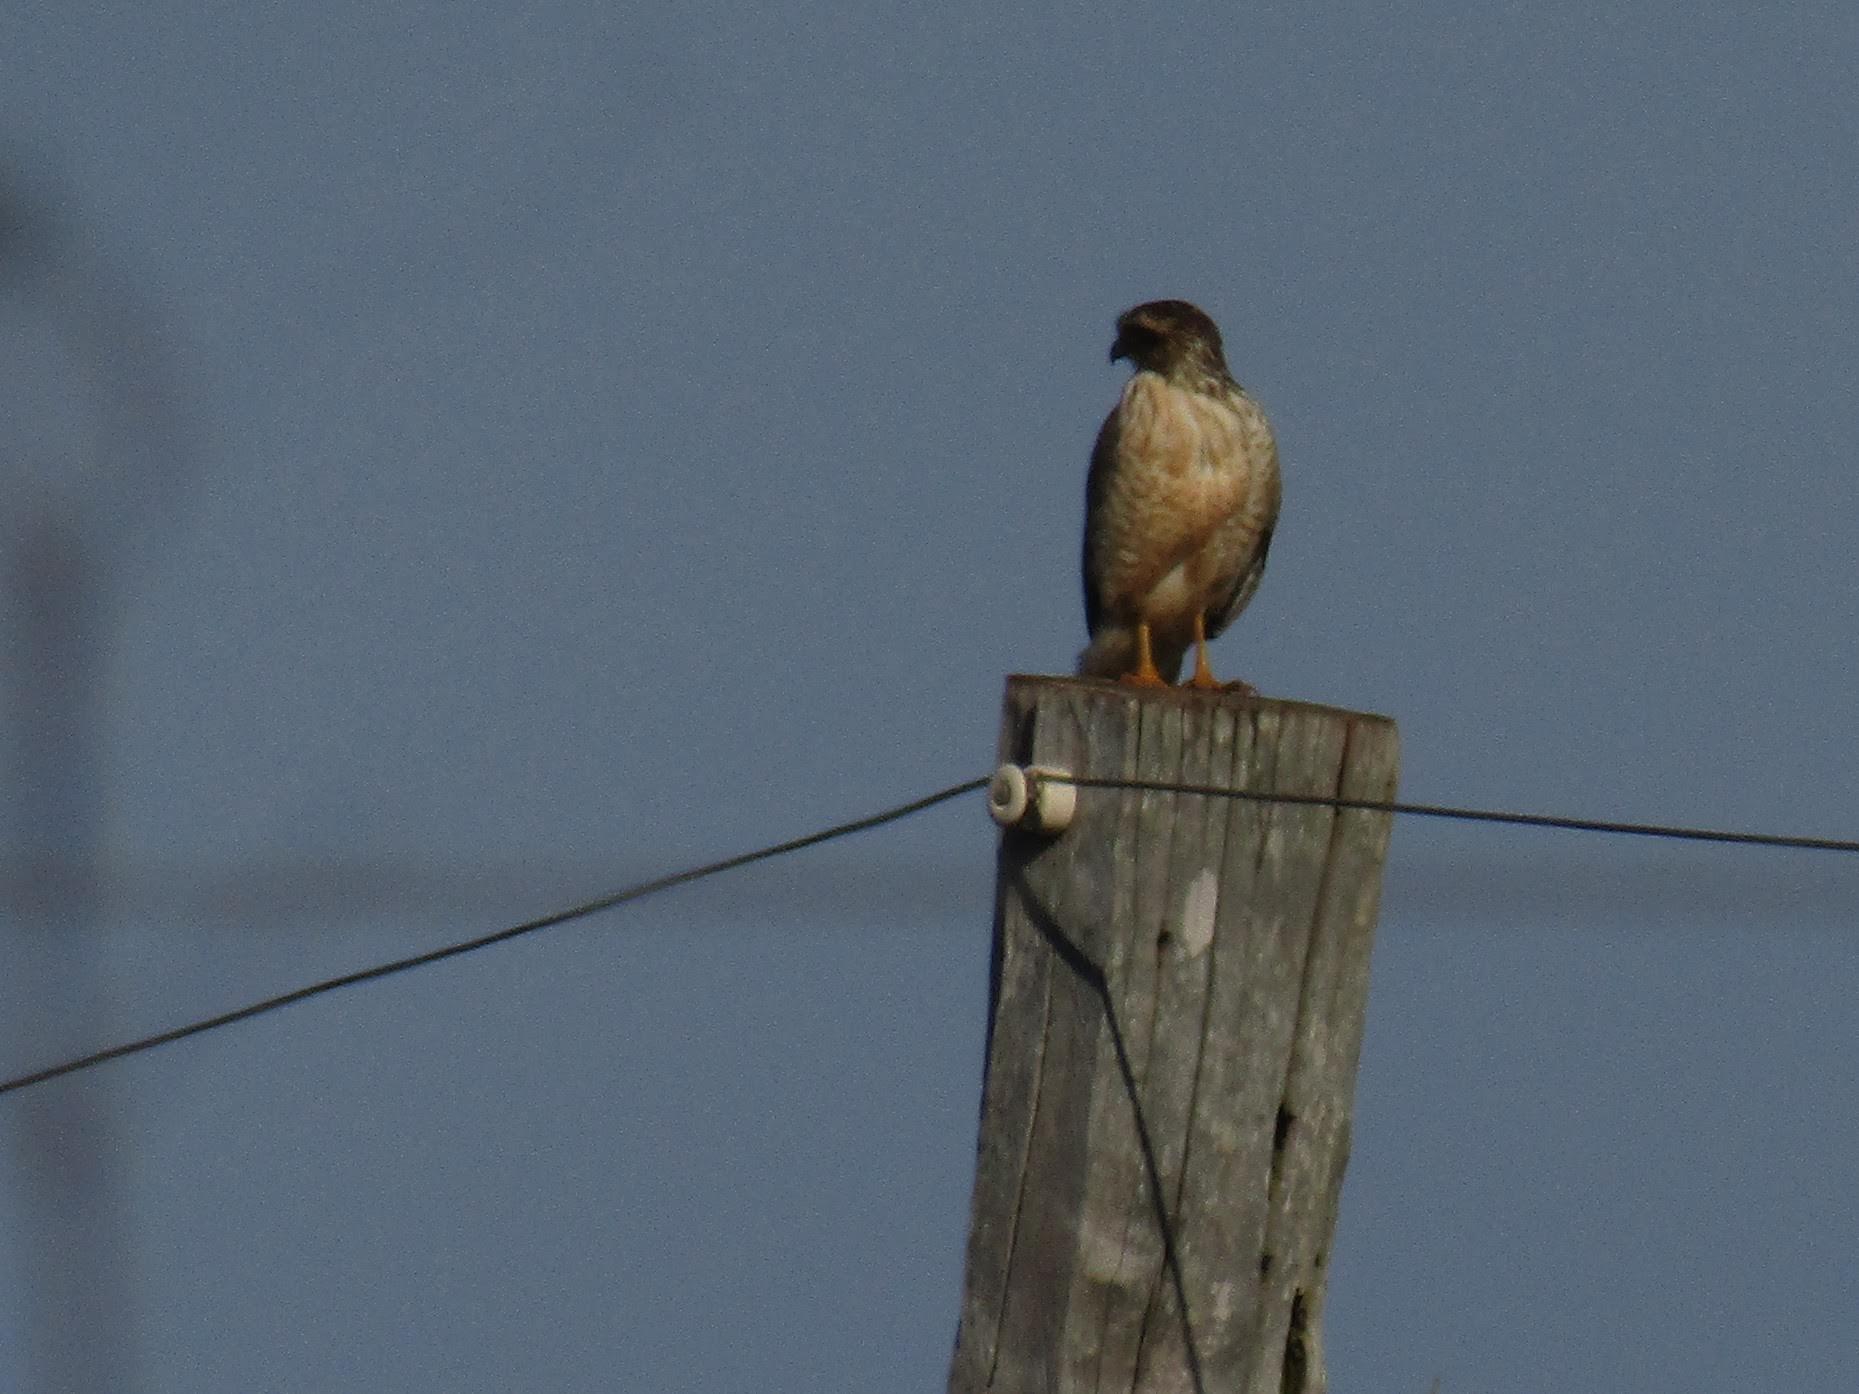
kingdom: Animalia
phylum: Chordata
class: Aves
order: Accipitriformes
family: Accipitridae
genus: Rupornis
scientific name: Rupornis magnirostris
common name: Roadside hawk
